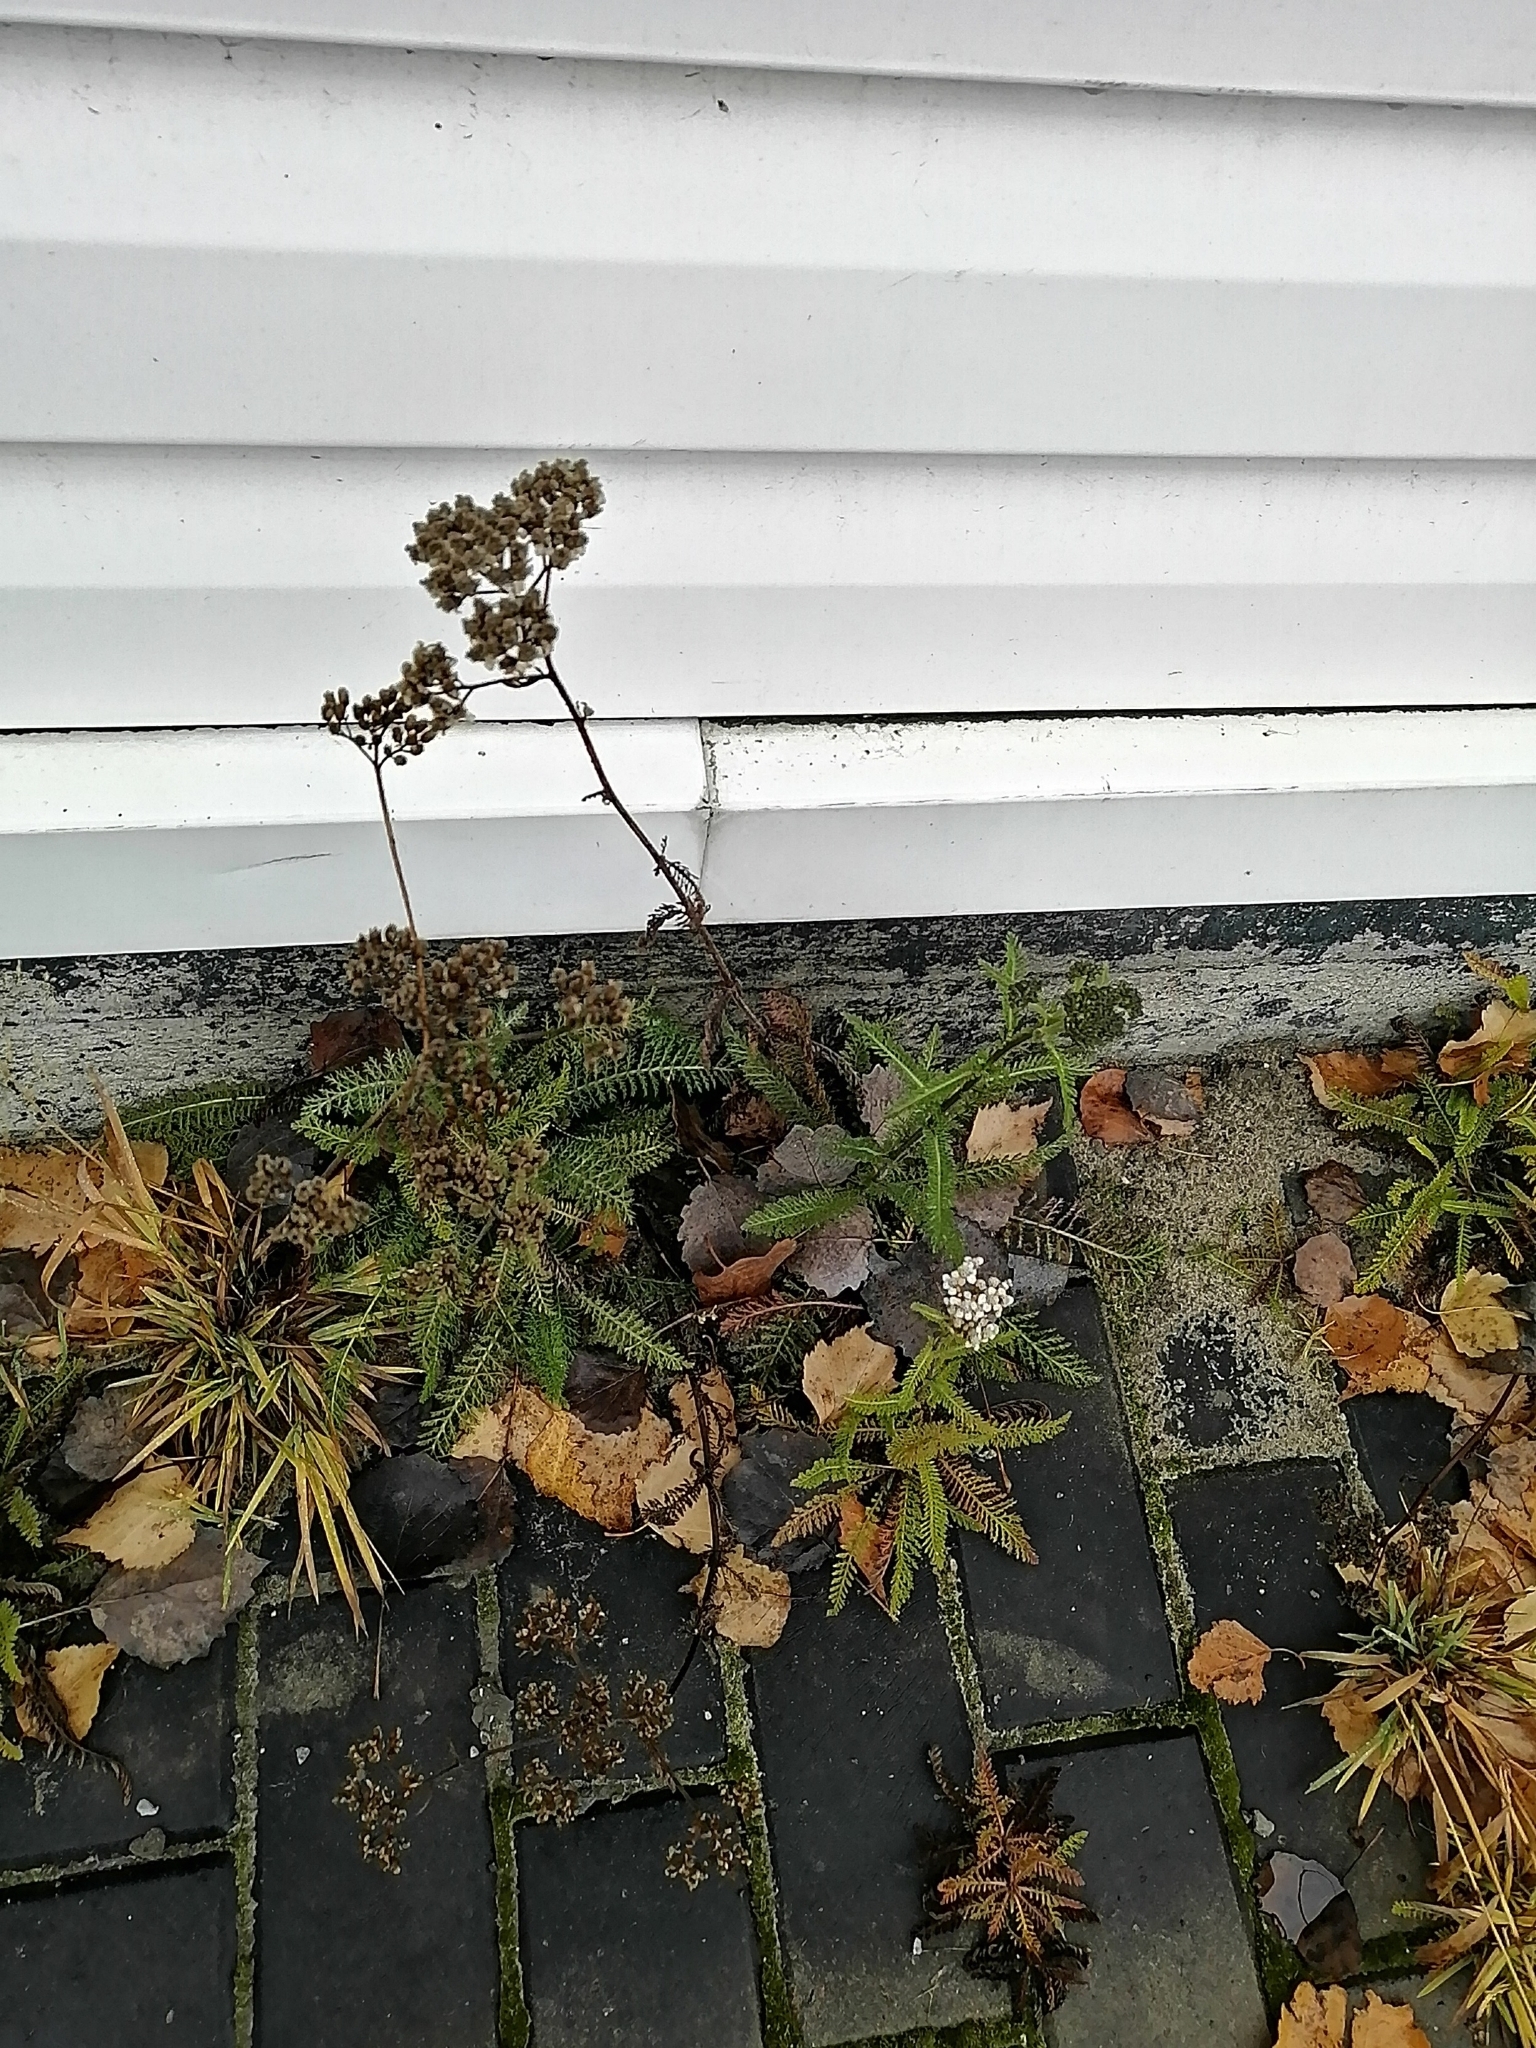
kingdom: Plantae
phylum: Tracheophyta
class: Magnoliopsida
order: Asterales
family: Asteraceae
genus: Achillea
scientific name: Achillea millefolium
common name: Yarrow
